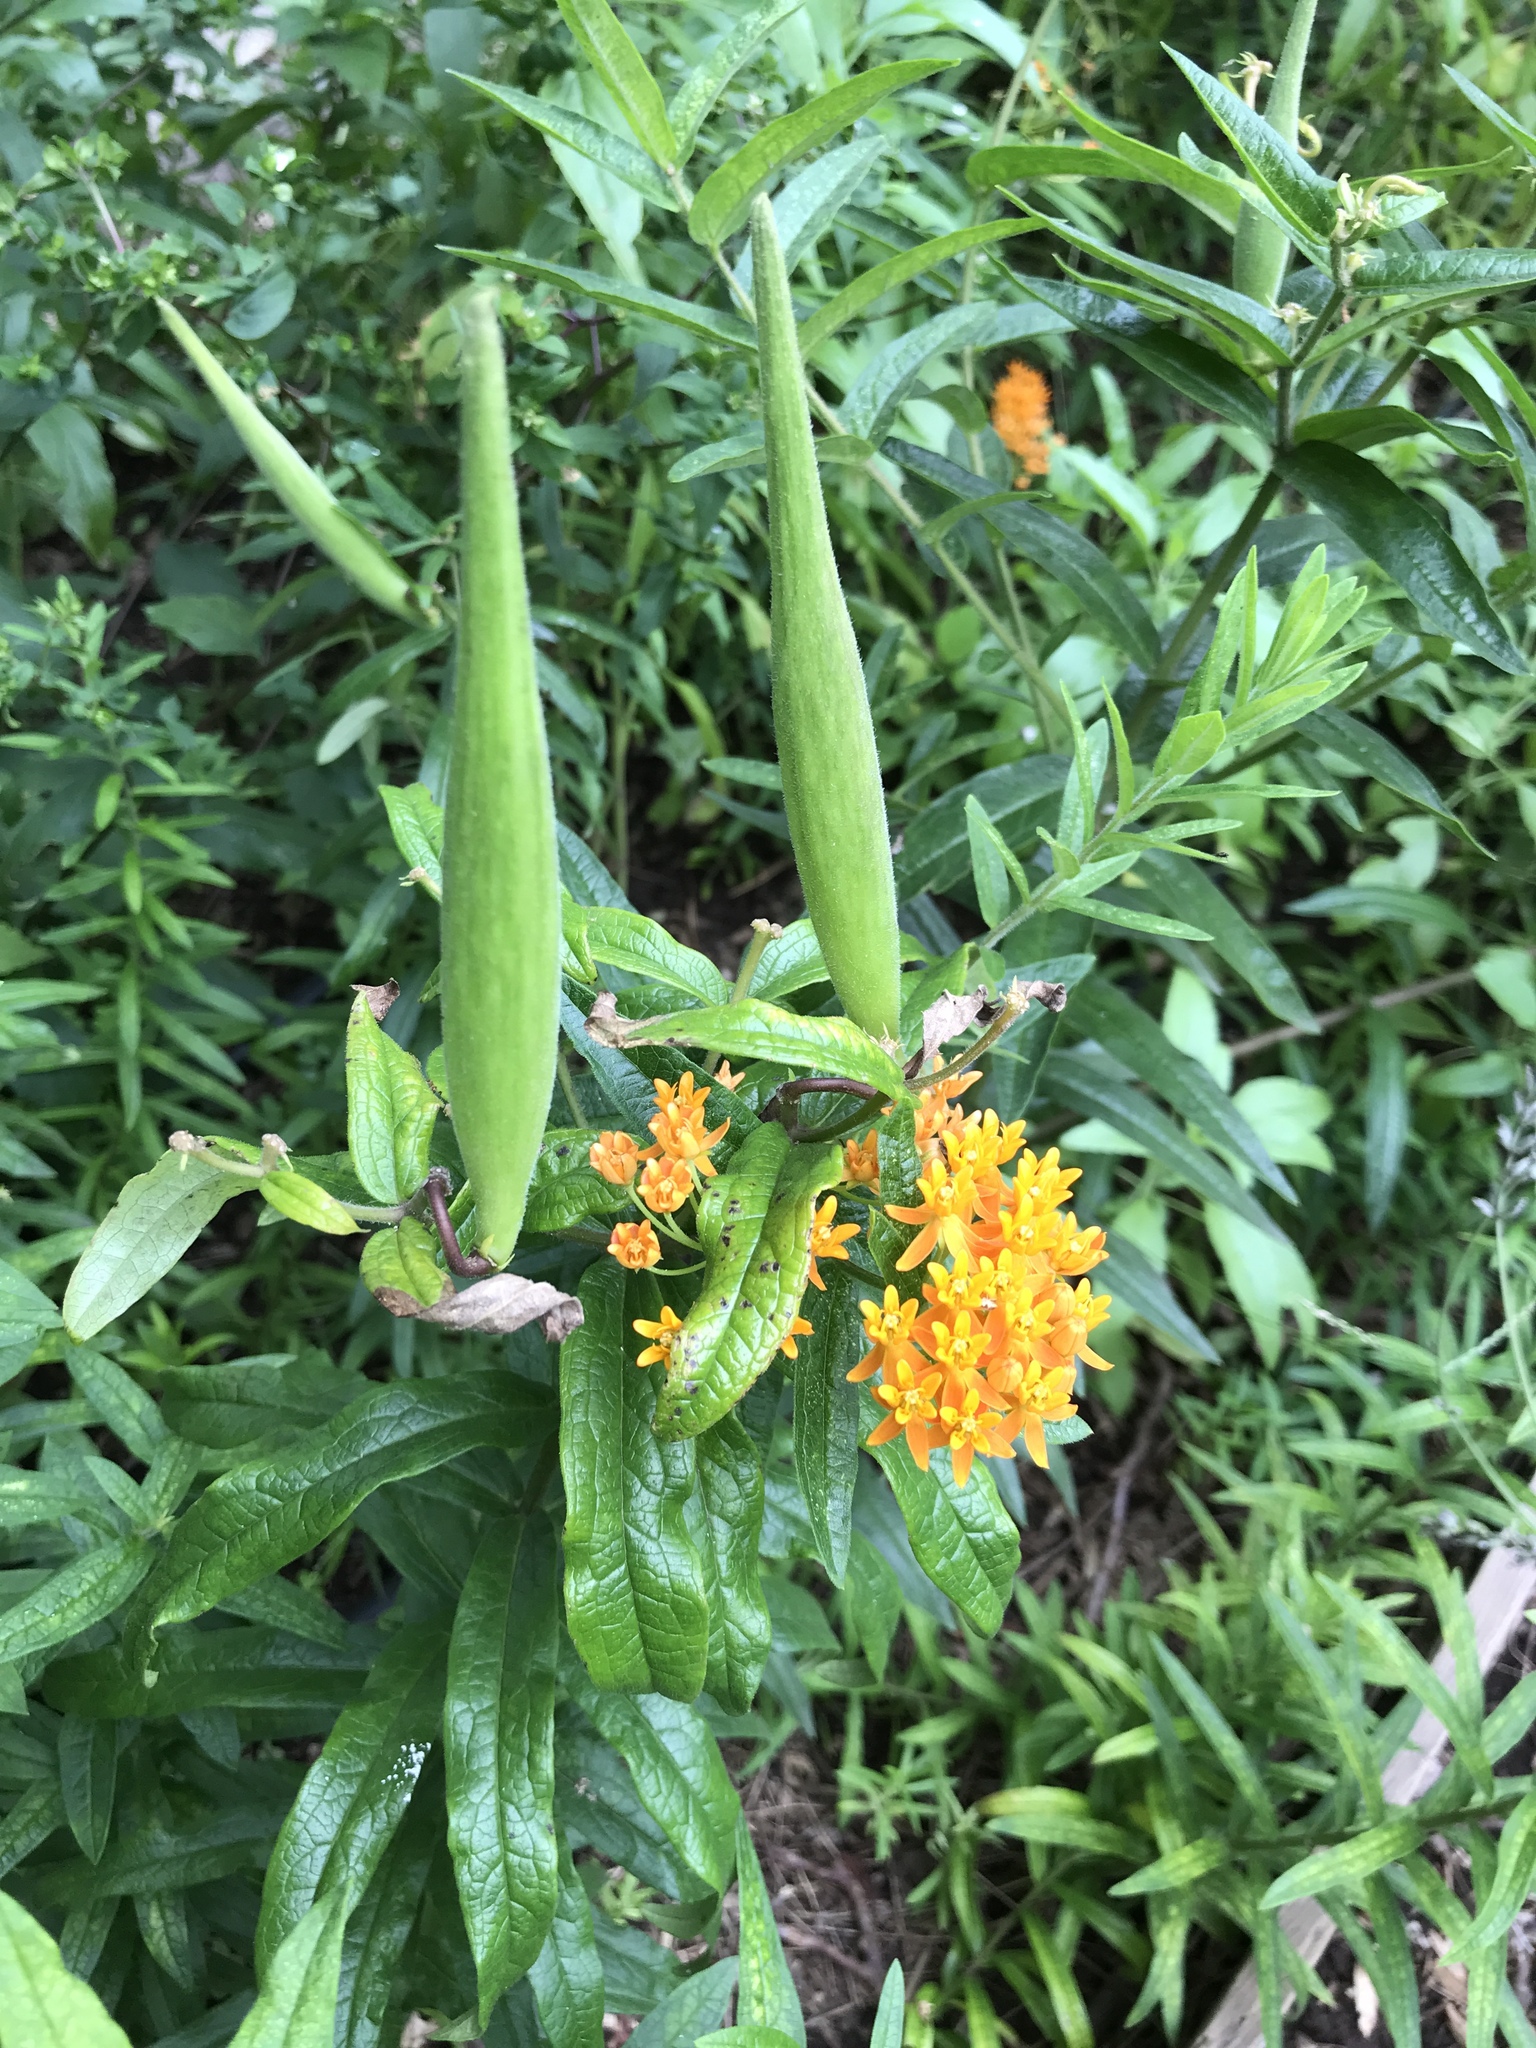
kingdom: Plantae
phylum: Tracheophyta
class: Magnoliopsida
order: Gentianales
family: Apocynaceae
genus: Asclepias
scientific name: Asclepias tuberosa
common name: Butterfly milkweed
